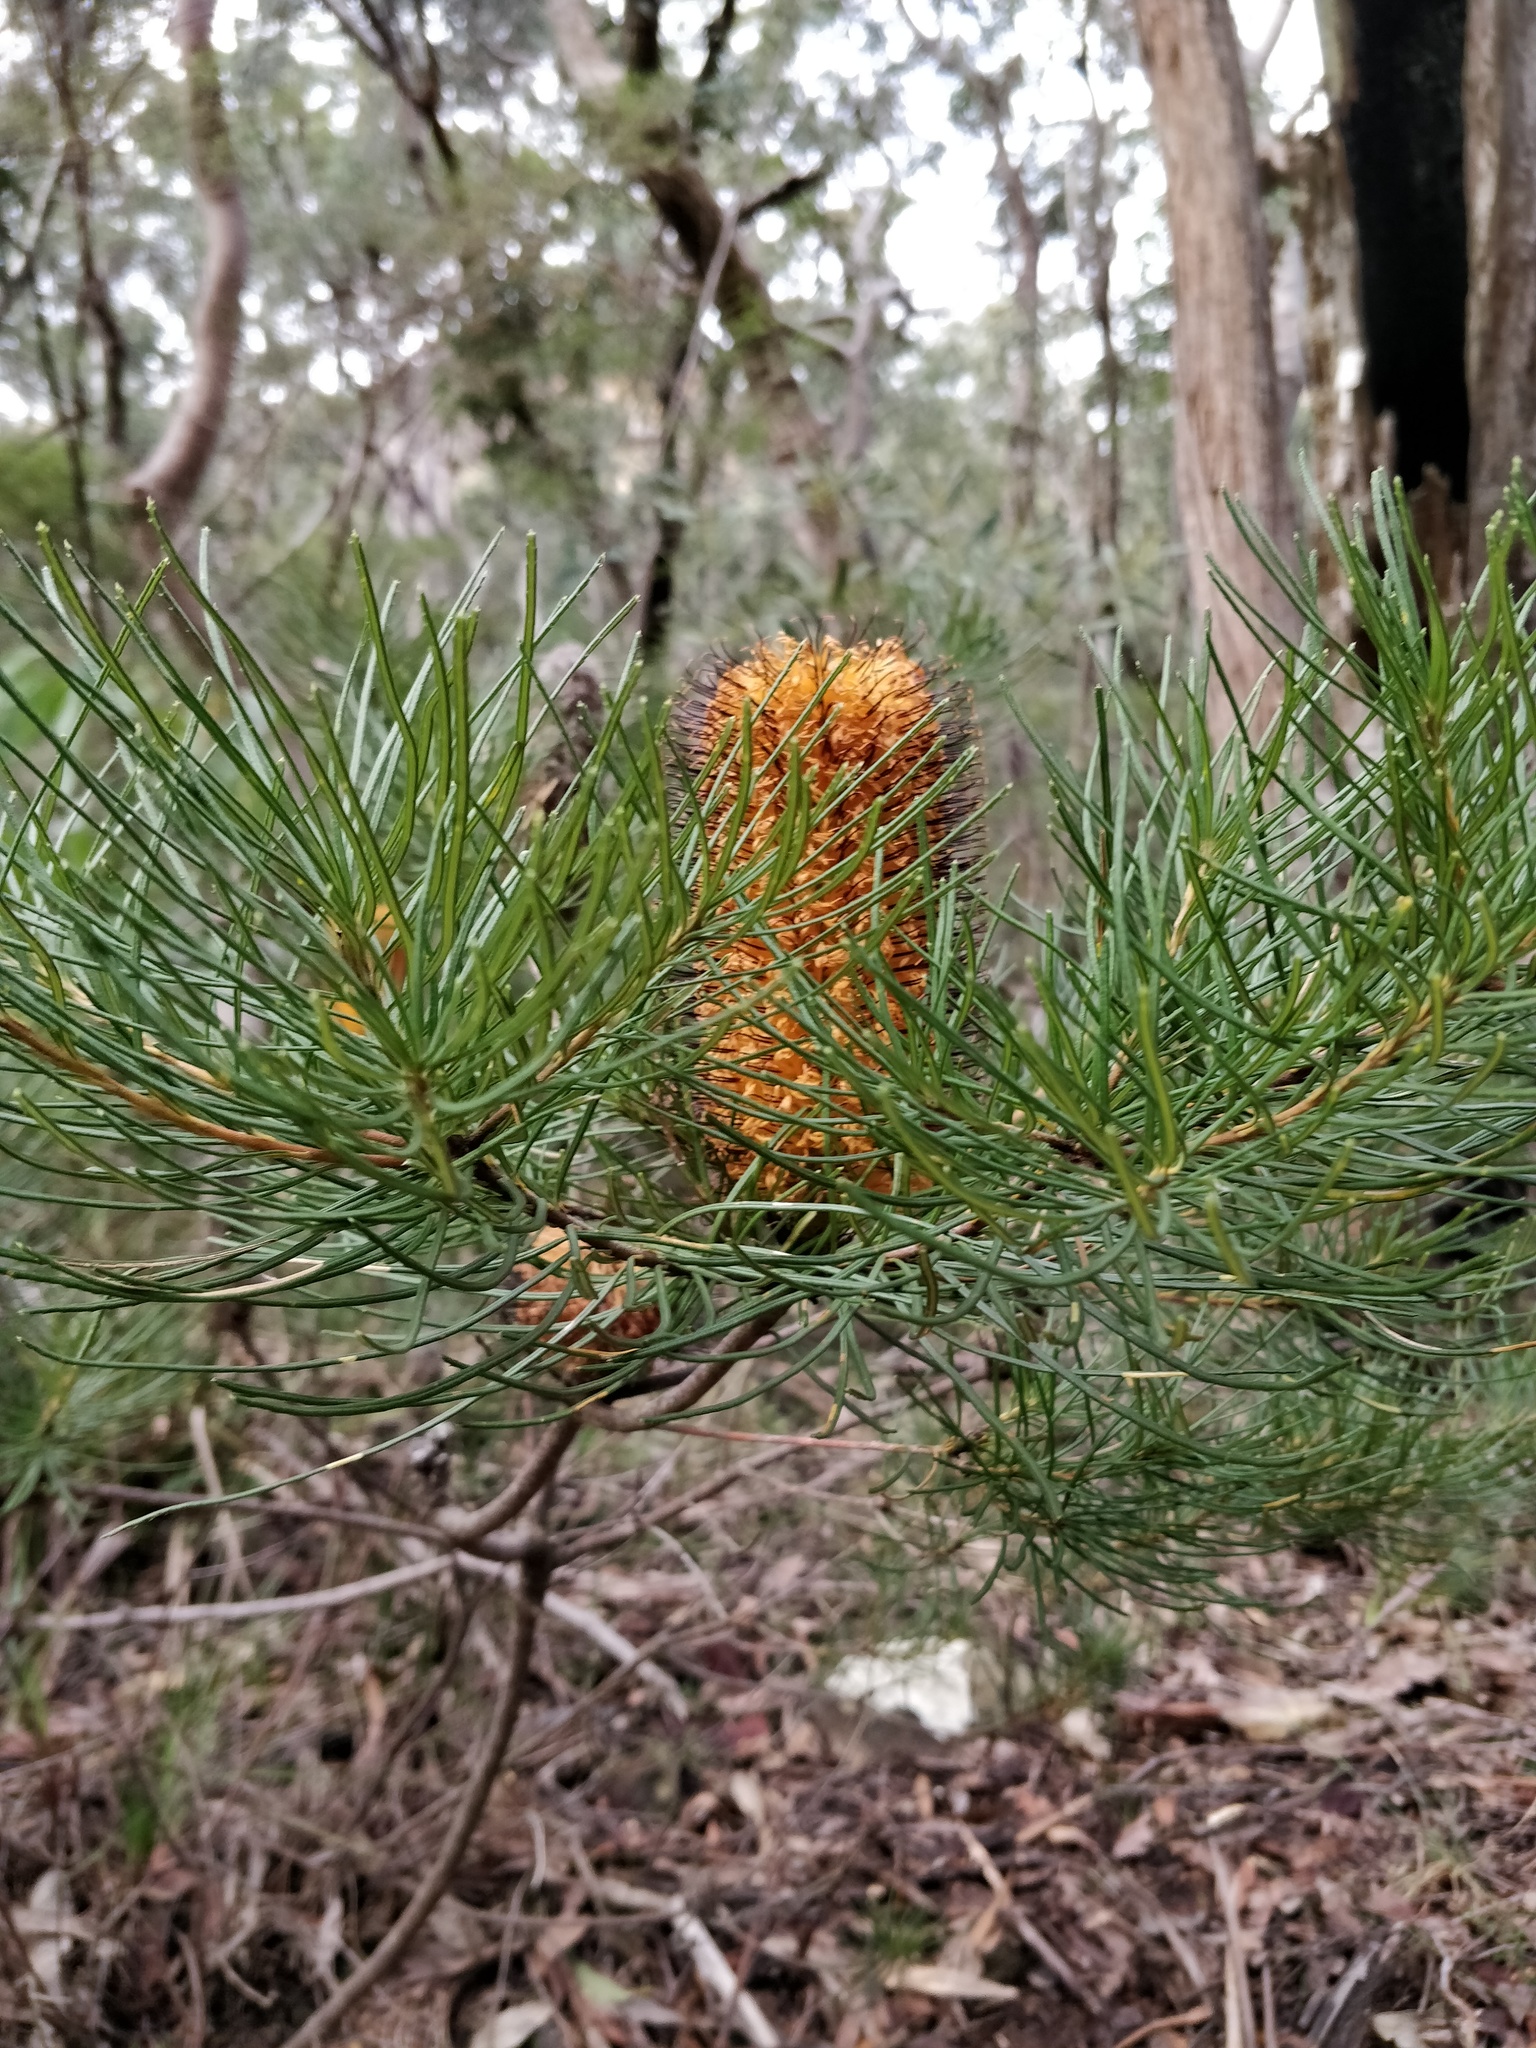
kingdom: Plantae
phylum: Tracheophyta
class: Magnoliopsida
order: Proteales
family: Proteaceae
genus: Banksia
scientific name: Banksia spinulosa
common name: Hairpin banksia
